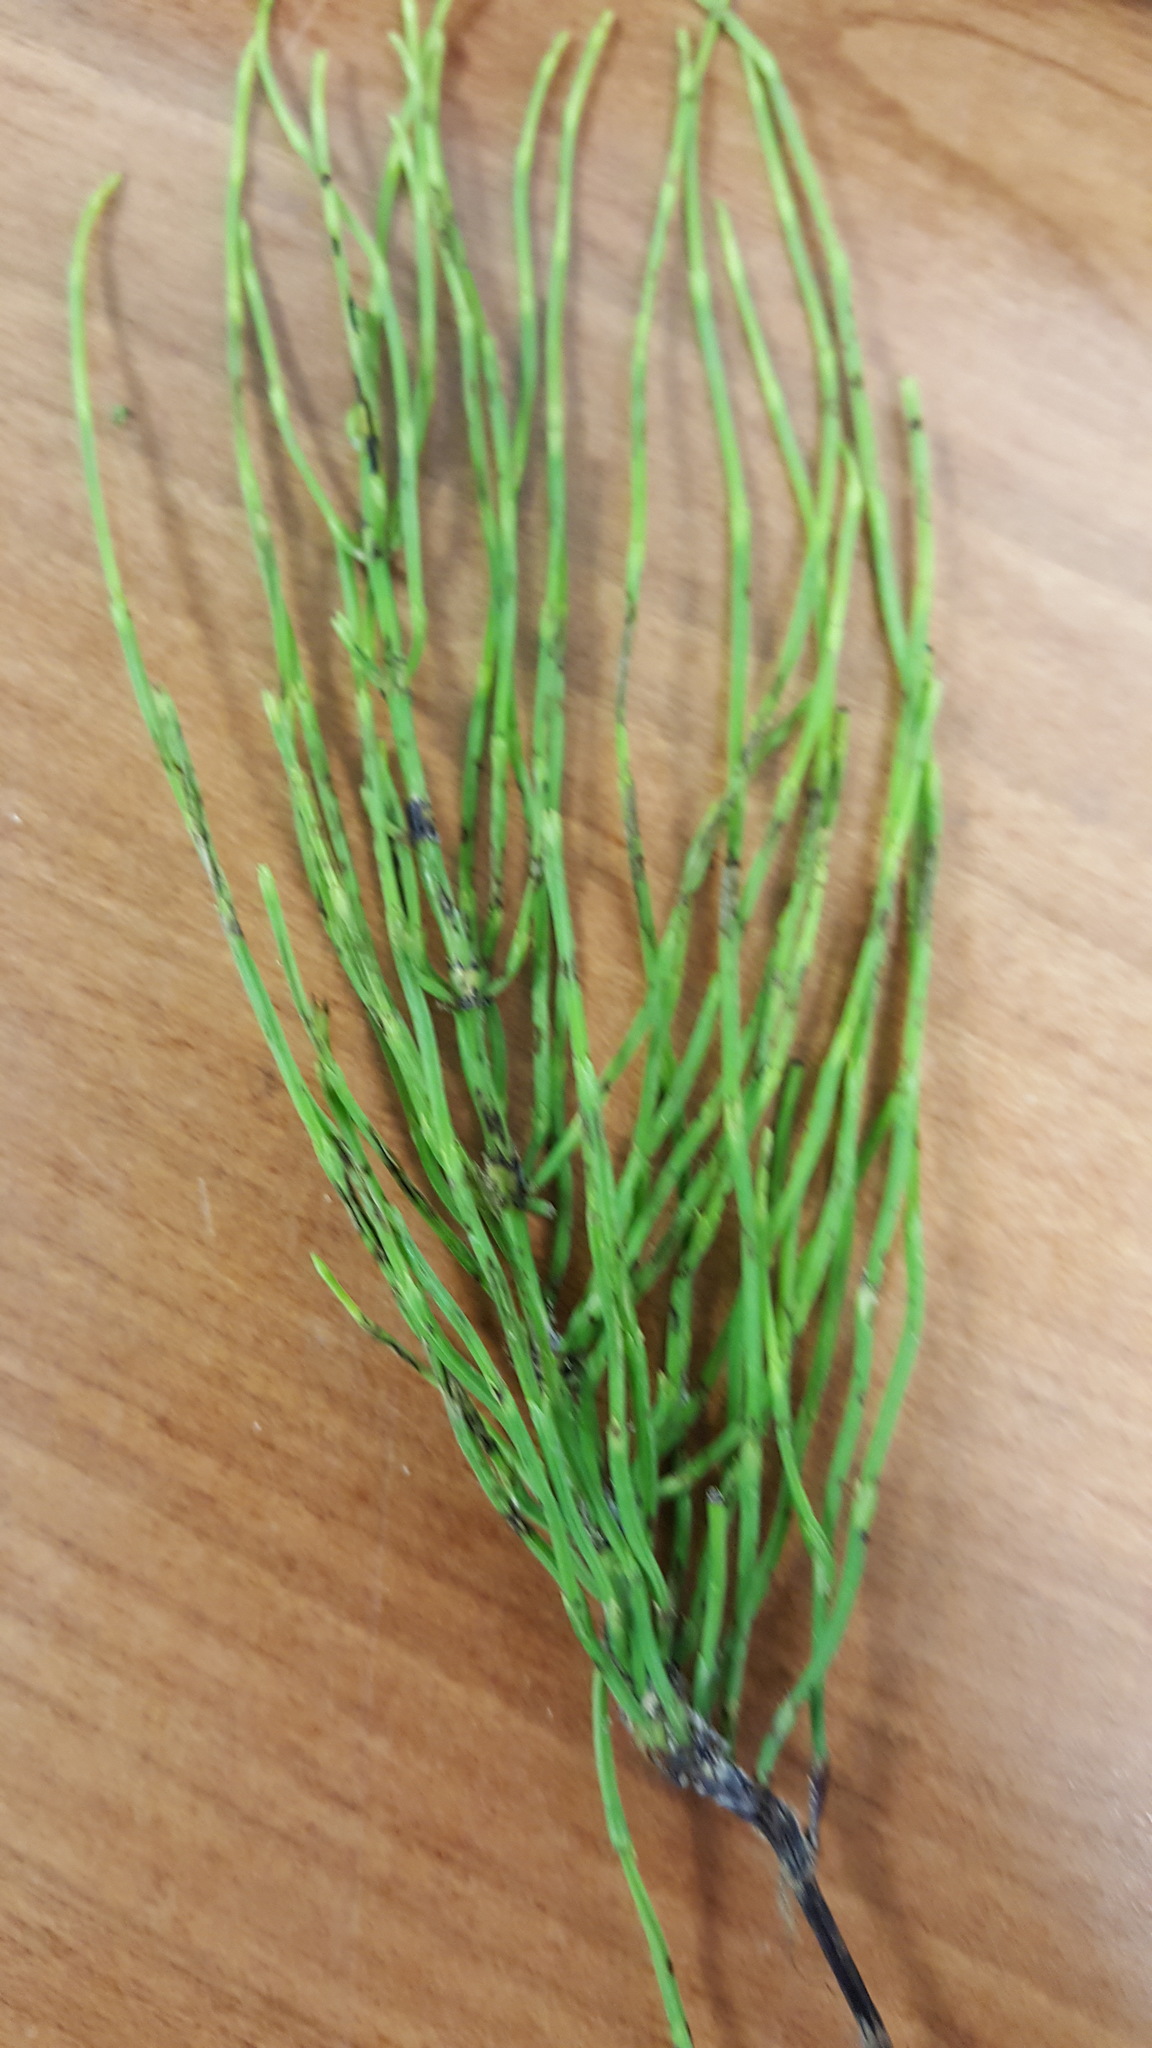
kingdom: Plantae
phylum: Tracheophyta
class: Polypodiopsida
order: Equisetales
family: Equisetaceae
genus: Equisetum
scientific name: Equisetum arvense
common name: Field horsetail
